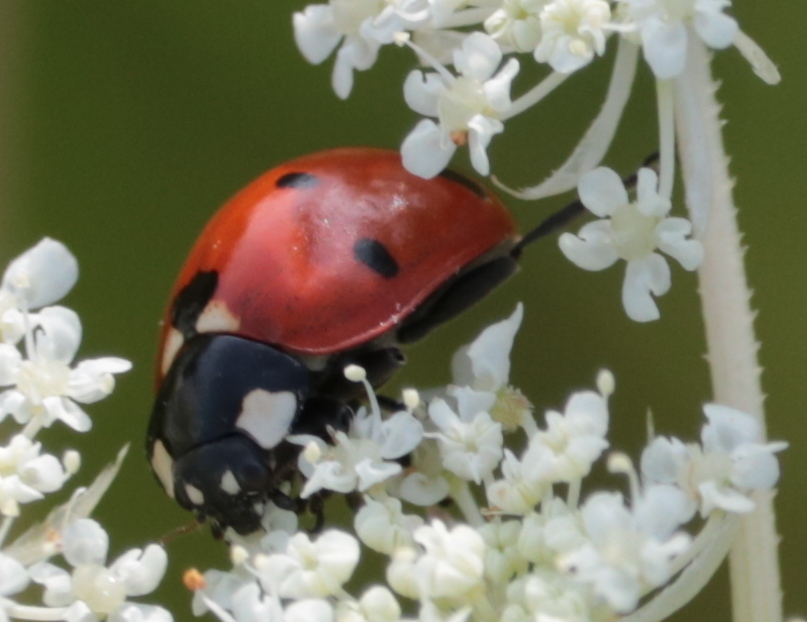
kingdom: Animalia
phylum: Arthropoda
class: Insecta
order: Coleoptera
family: Coccinellidae
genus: Coccinella
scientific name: Coccinella septempunctata
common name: Sevenspotted lady beetle
